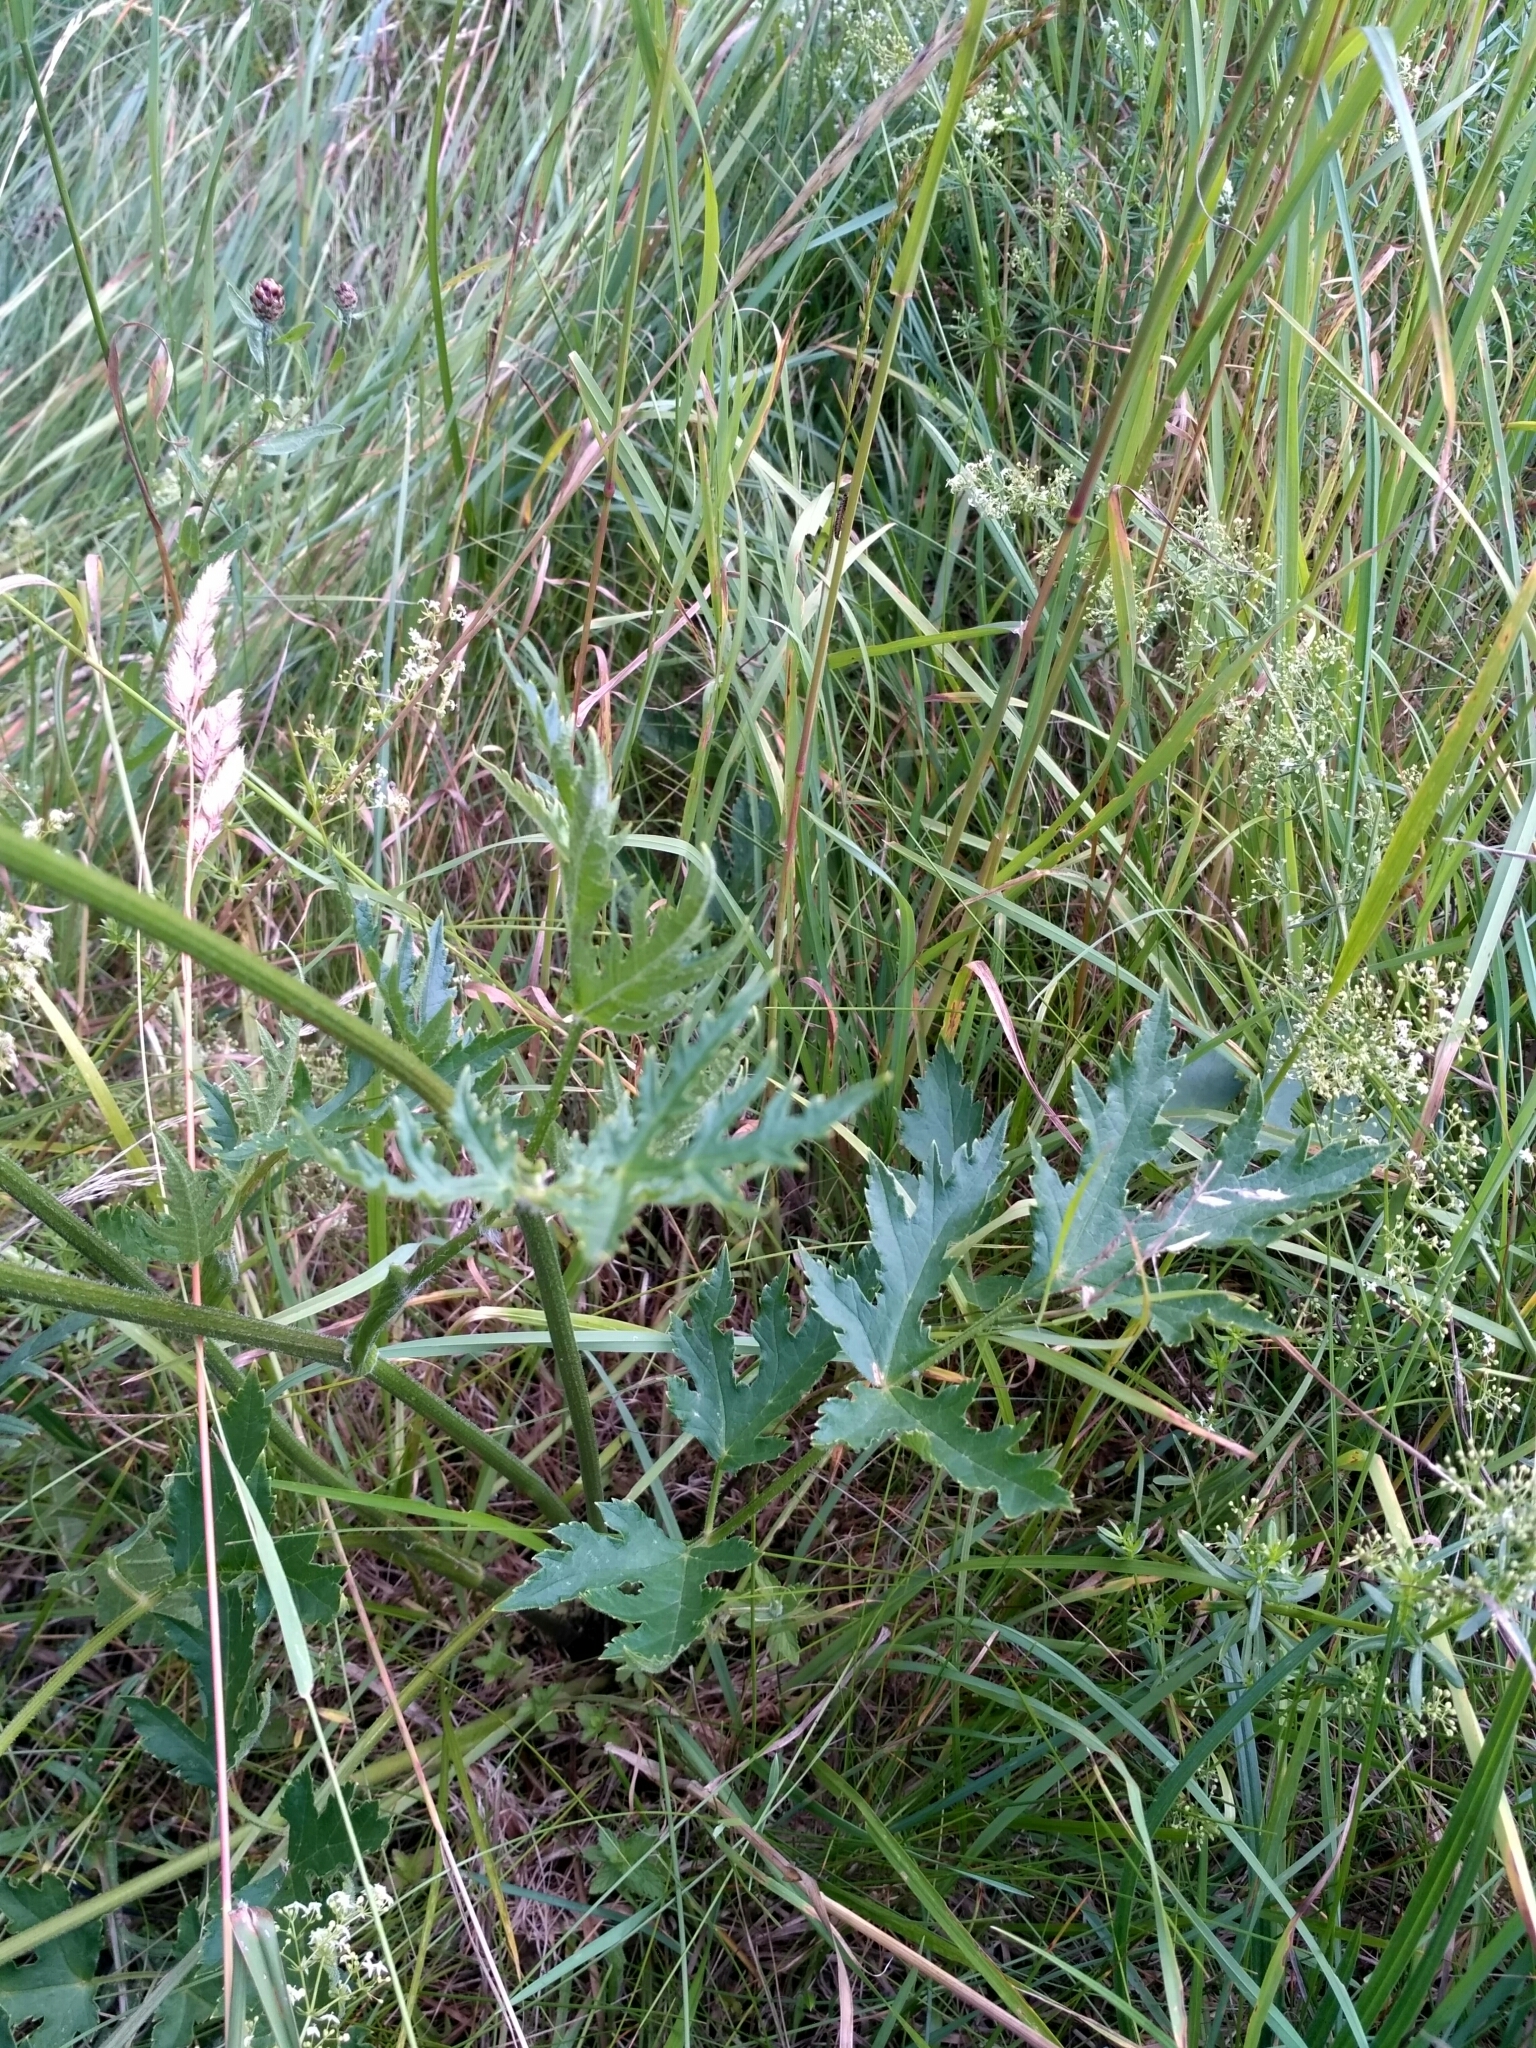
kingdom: Plantae
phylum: Tracheophyta
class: Magnoliopsida
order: Apiales
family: Apiaceae
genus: Heracleum
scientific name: Heracleum sphondylium
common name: Hogweed
